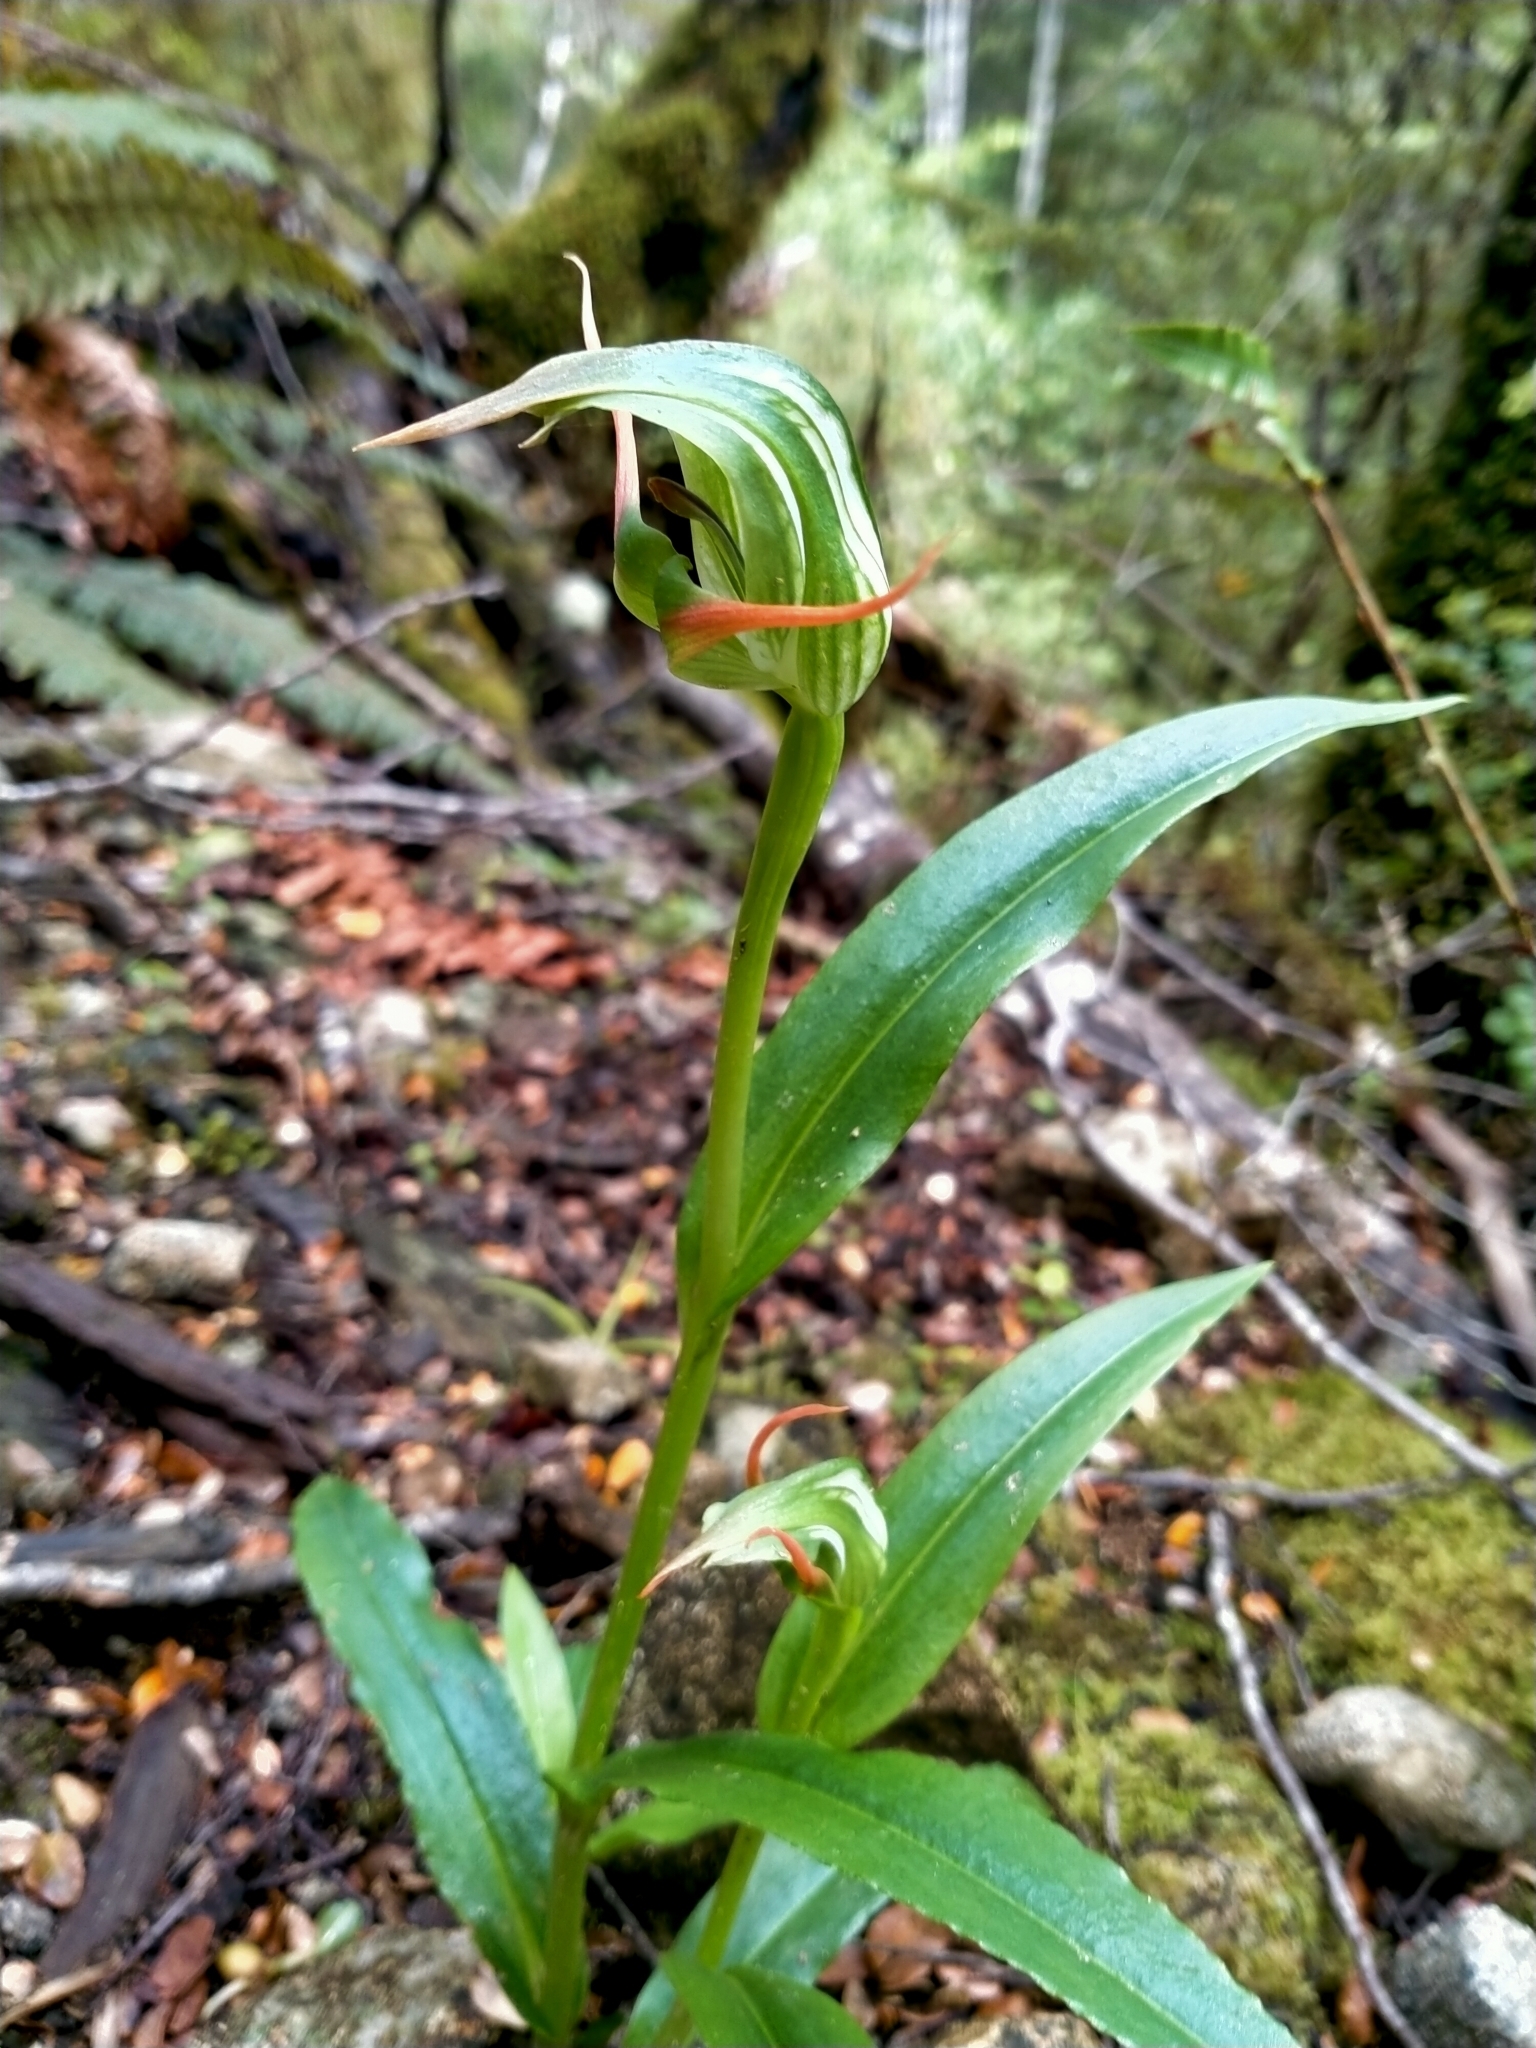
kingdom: Plantae
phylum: Tracheophyta
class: Liliopsida
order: Asparagales
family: Orchidaceae
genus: Pterostylis
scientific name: Pterostylis australis
